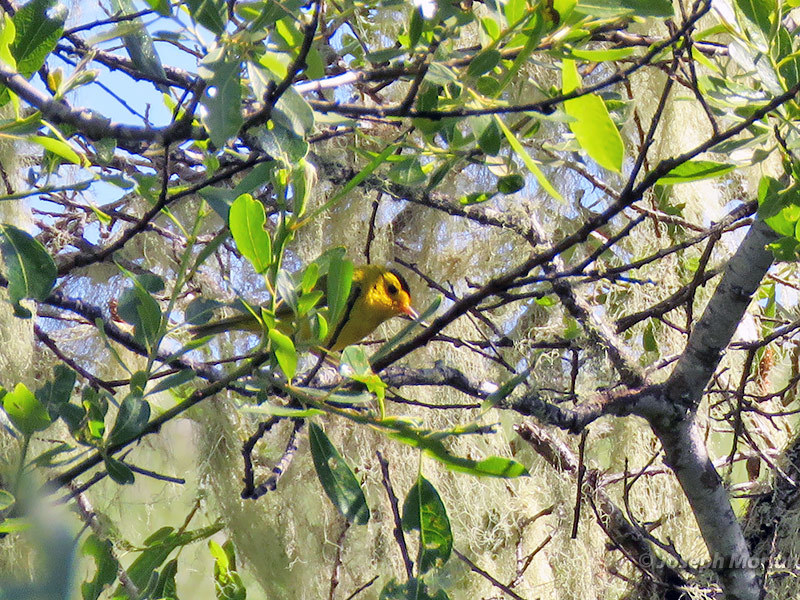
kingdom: Animalia
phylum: Chordata
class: Aves
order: Passeriformes
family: Parulidae
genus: Cardellina
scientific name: Cardellina pusilla
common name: Wilson's warbler
